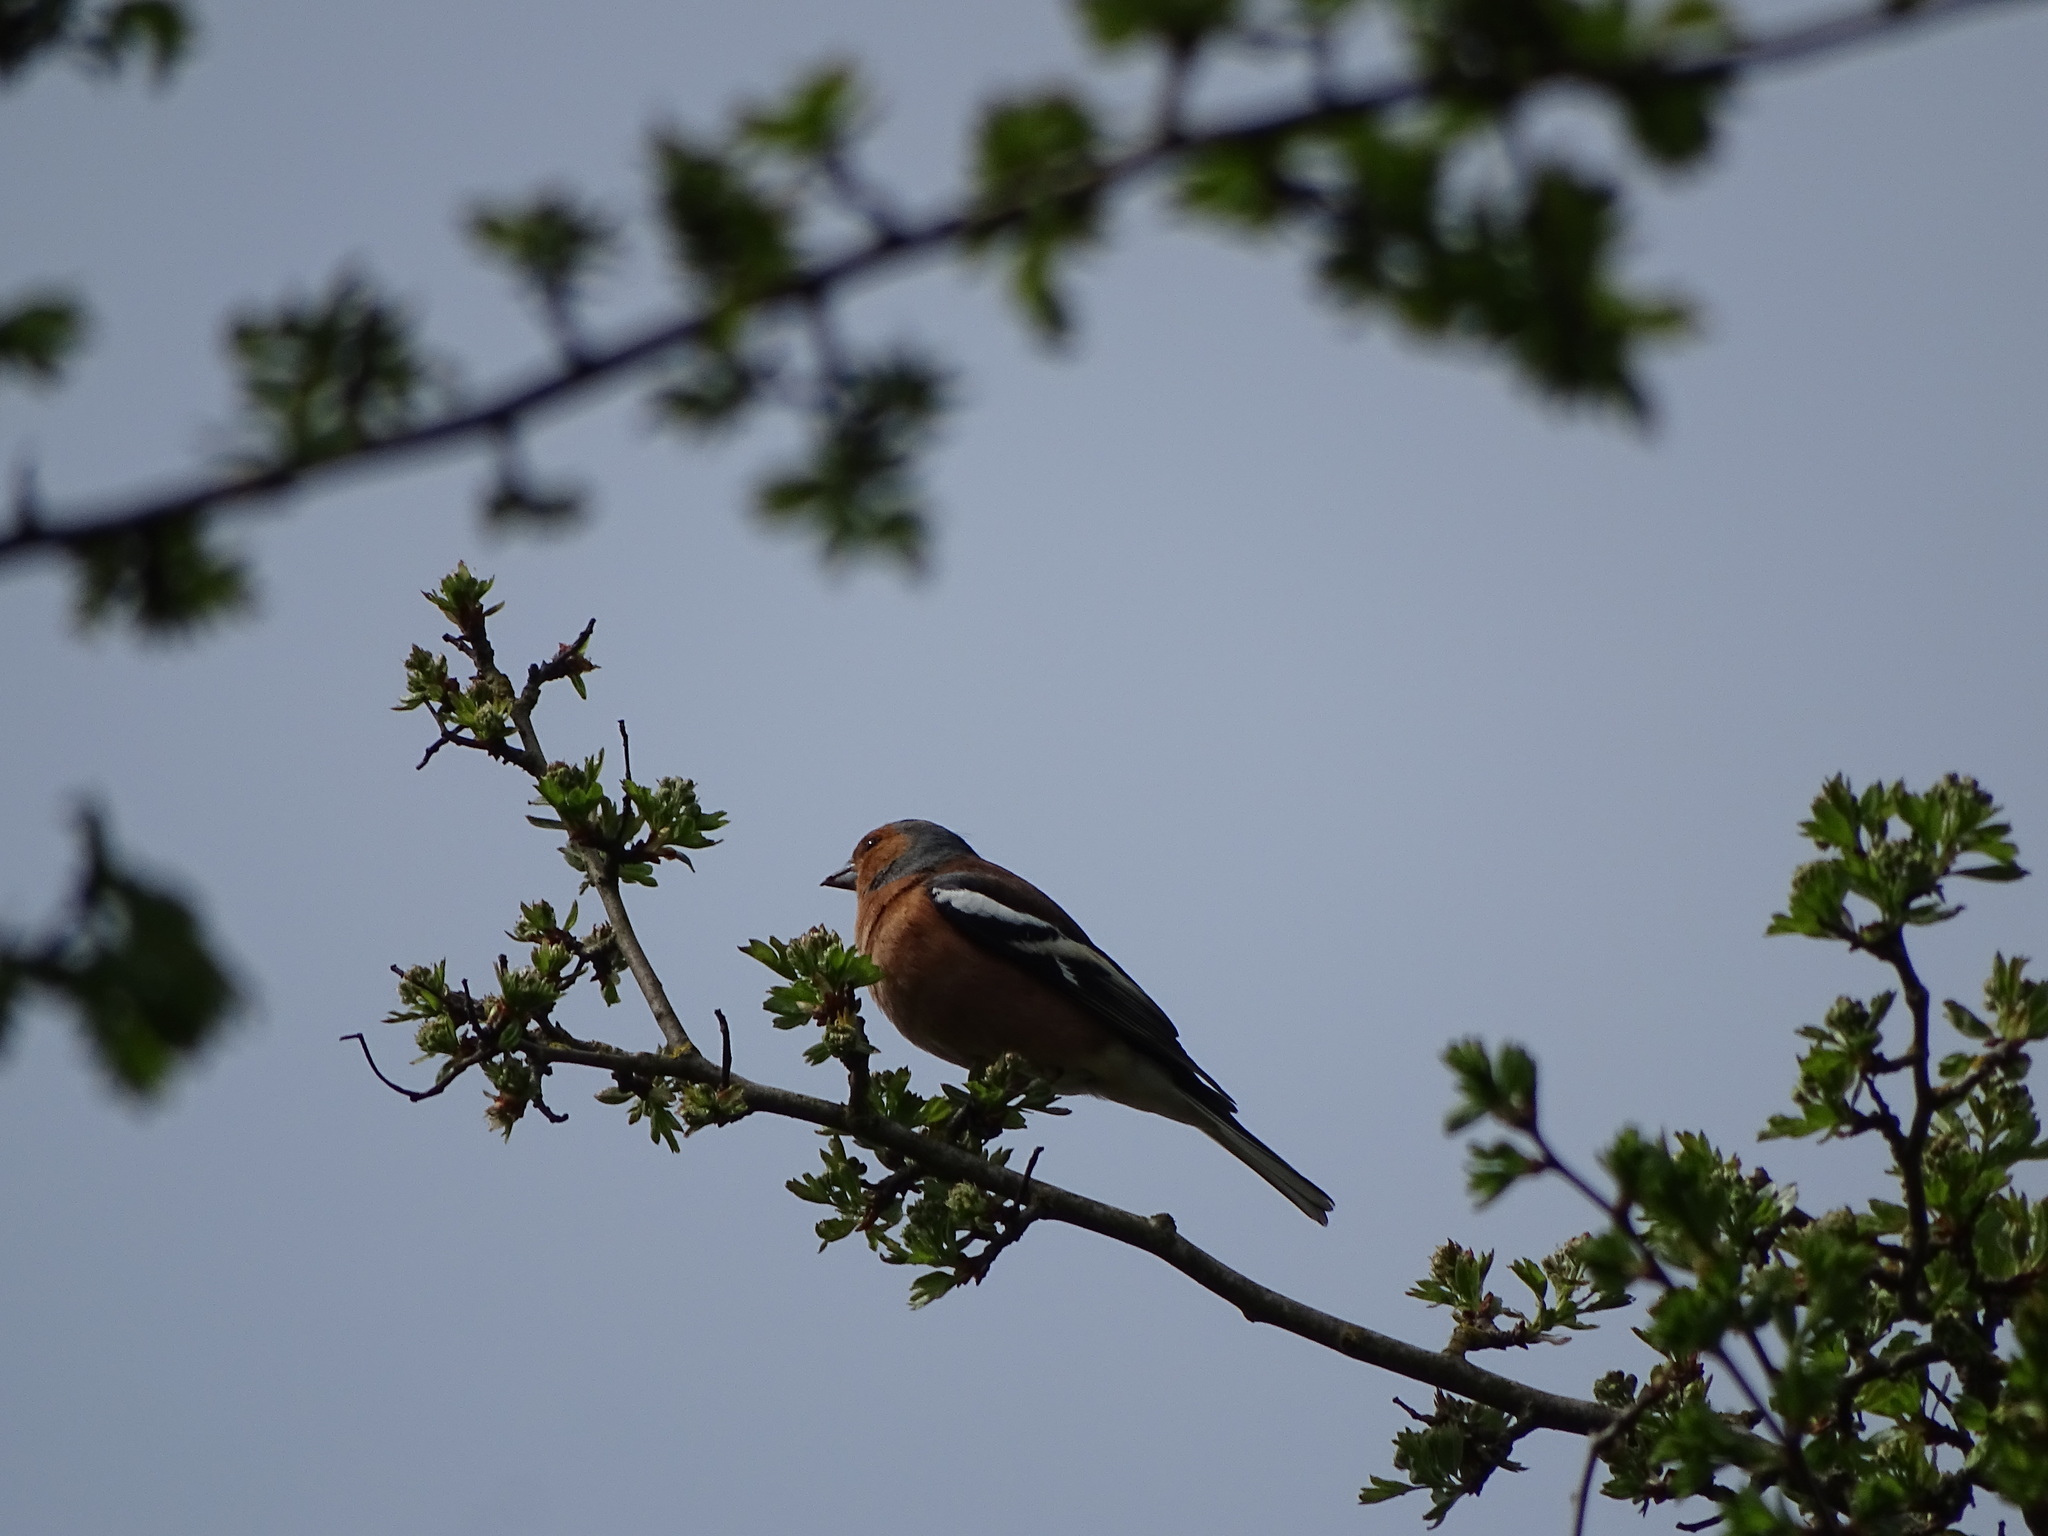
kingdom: Animalia
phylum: Chordata
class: Aves
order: Passeriformes
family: Fringillidae
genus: Fringilla
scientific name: Fringilla coelebs
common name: Common chaffinch
